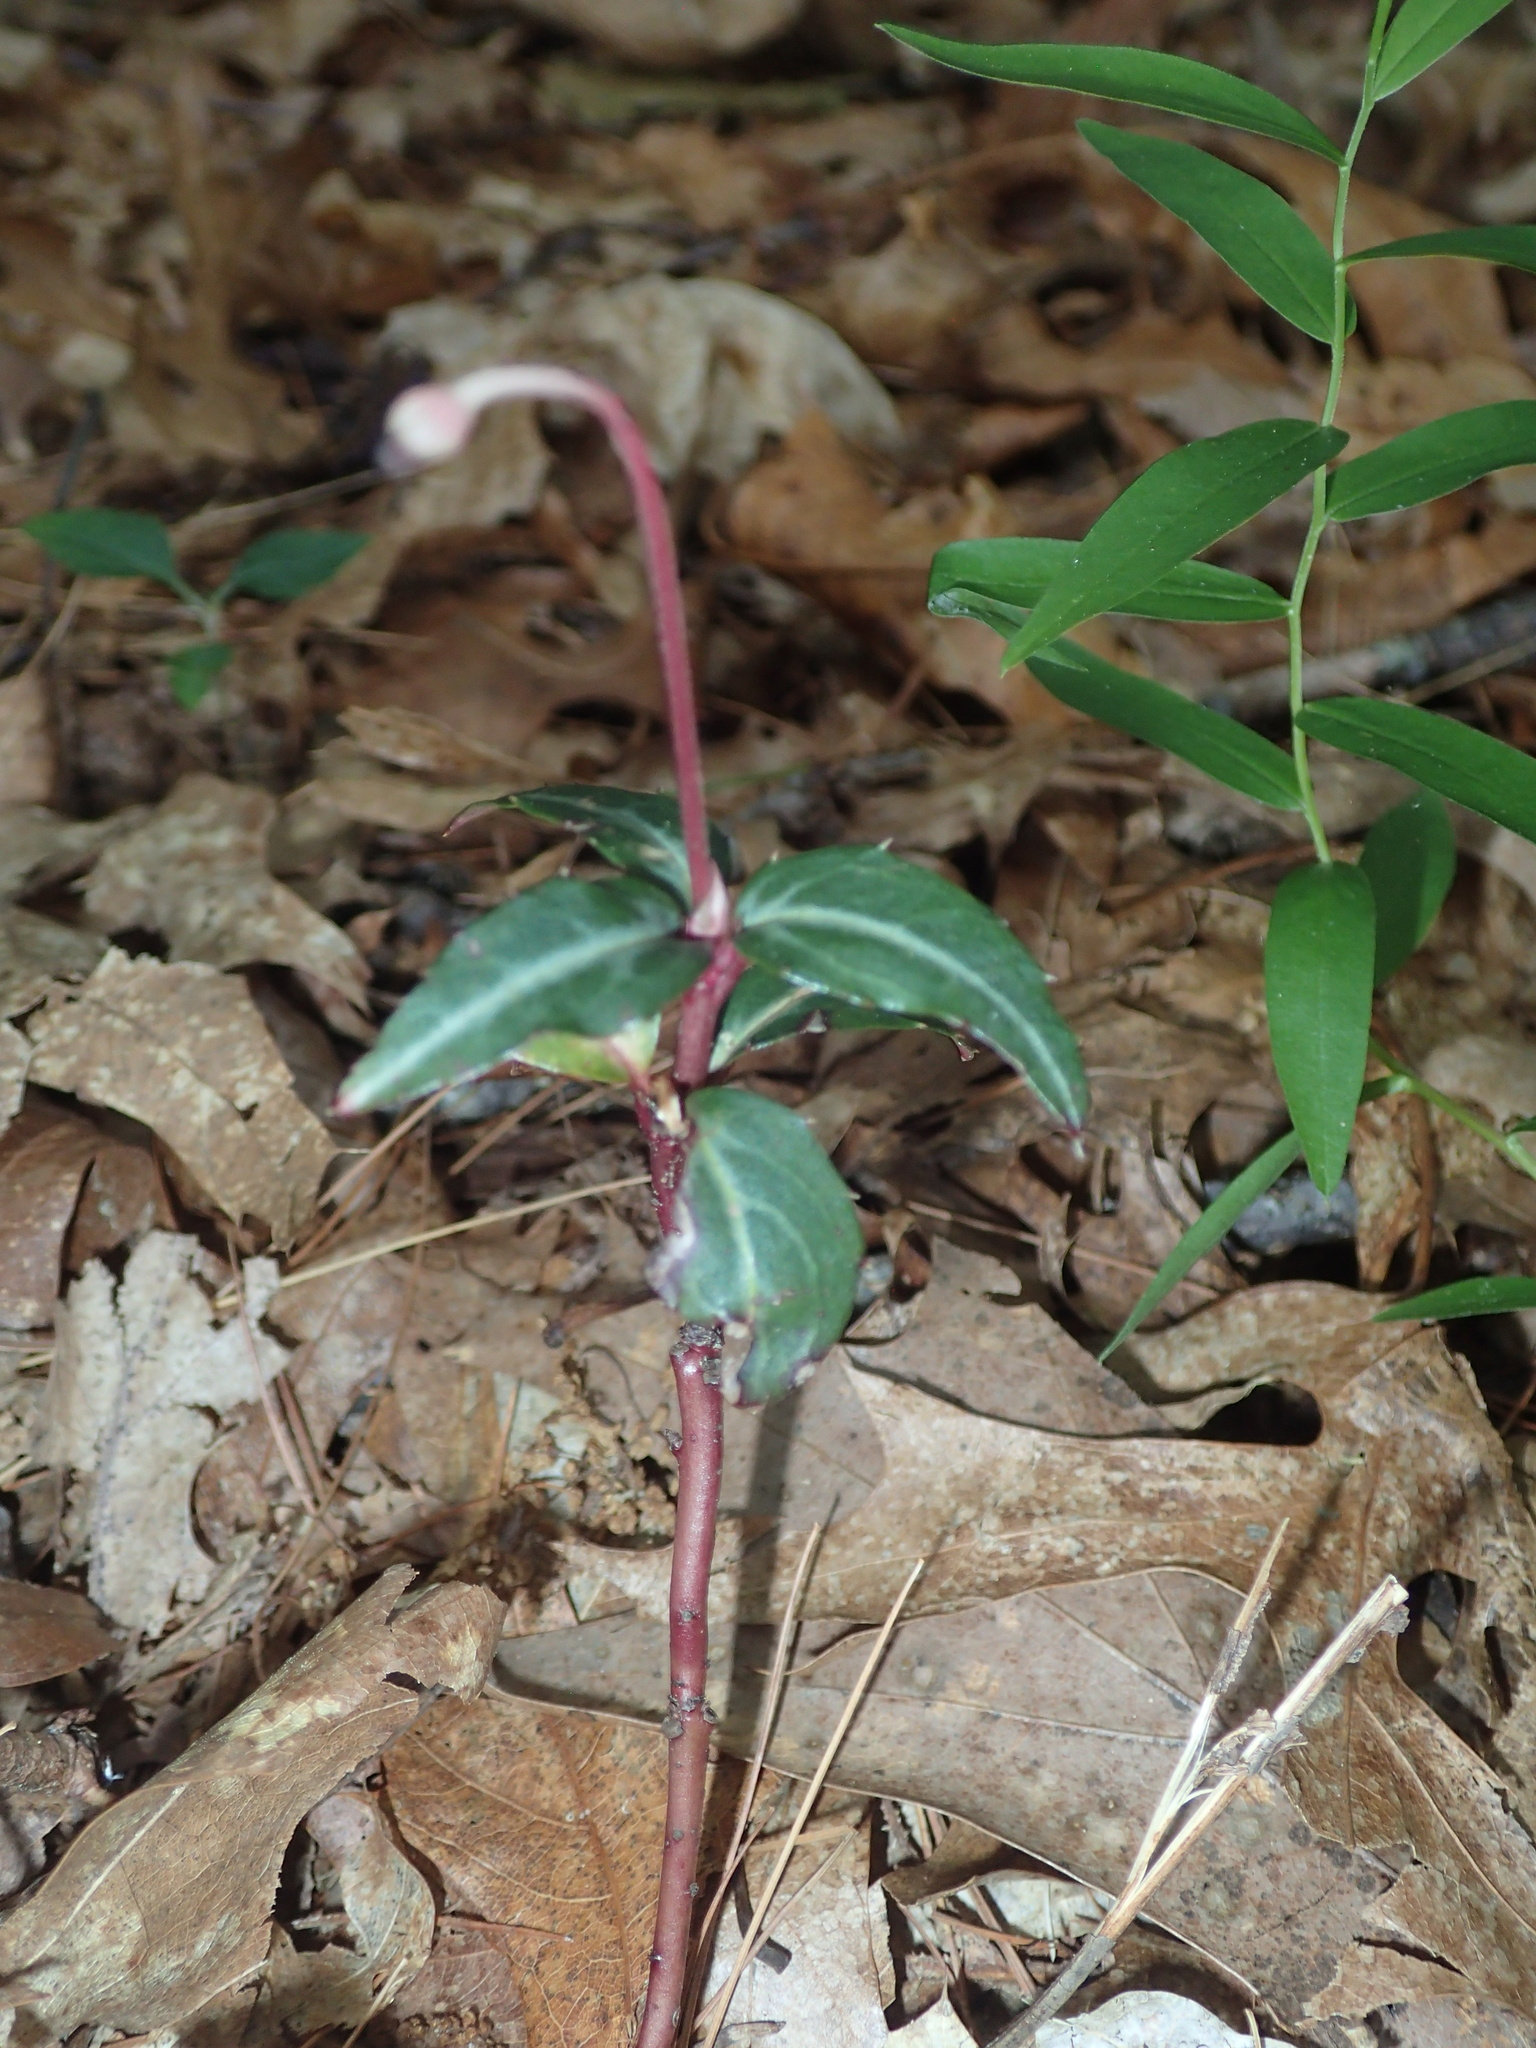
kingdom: Plantae
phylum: Tracheophyta
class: Magnoliopsida
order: Ericales
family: Ericaceae
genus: Chimaphila
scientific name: Chimaphila maculata
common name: Spotted pipsissewa
